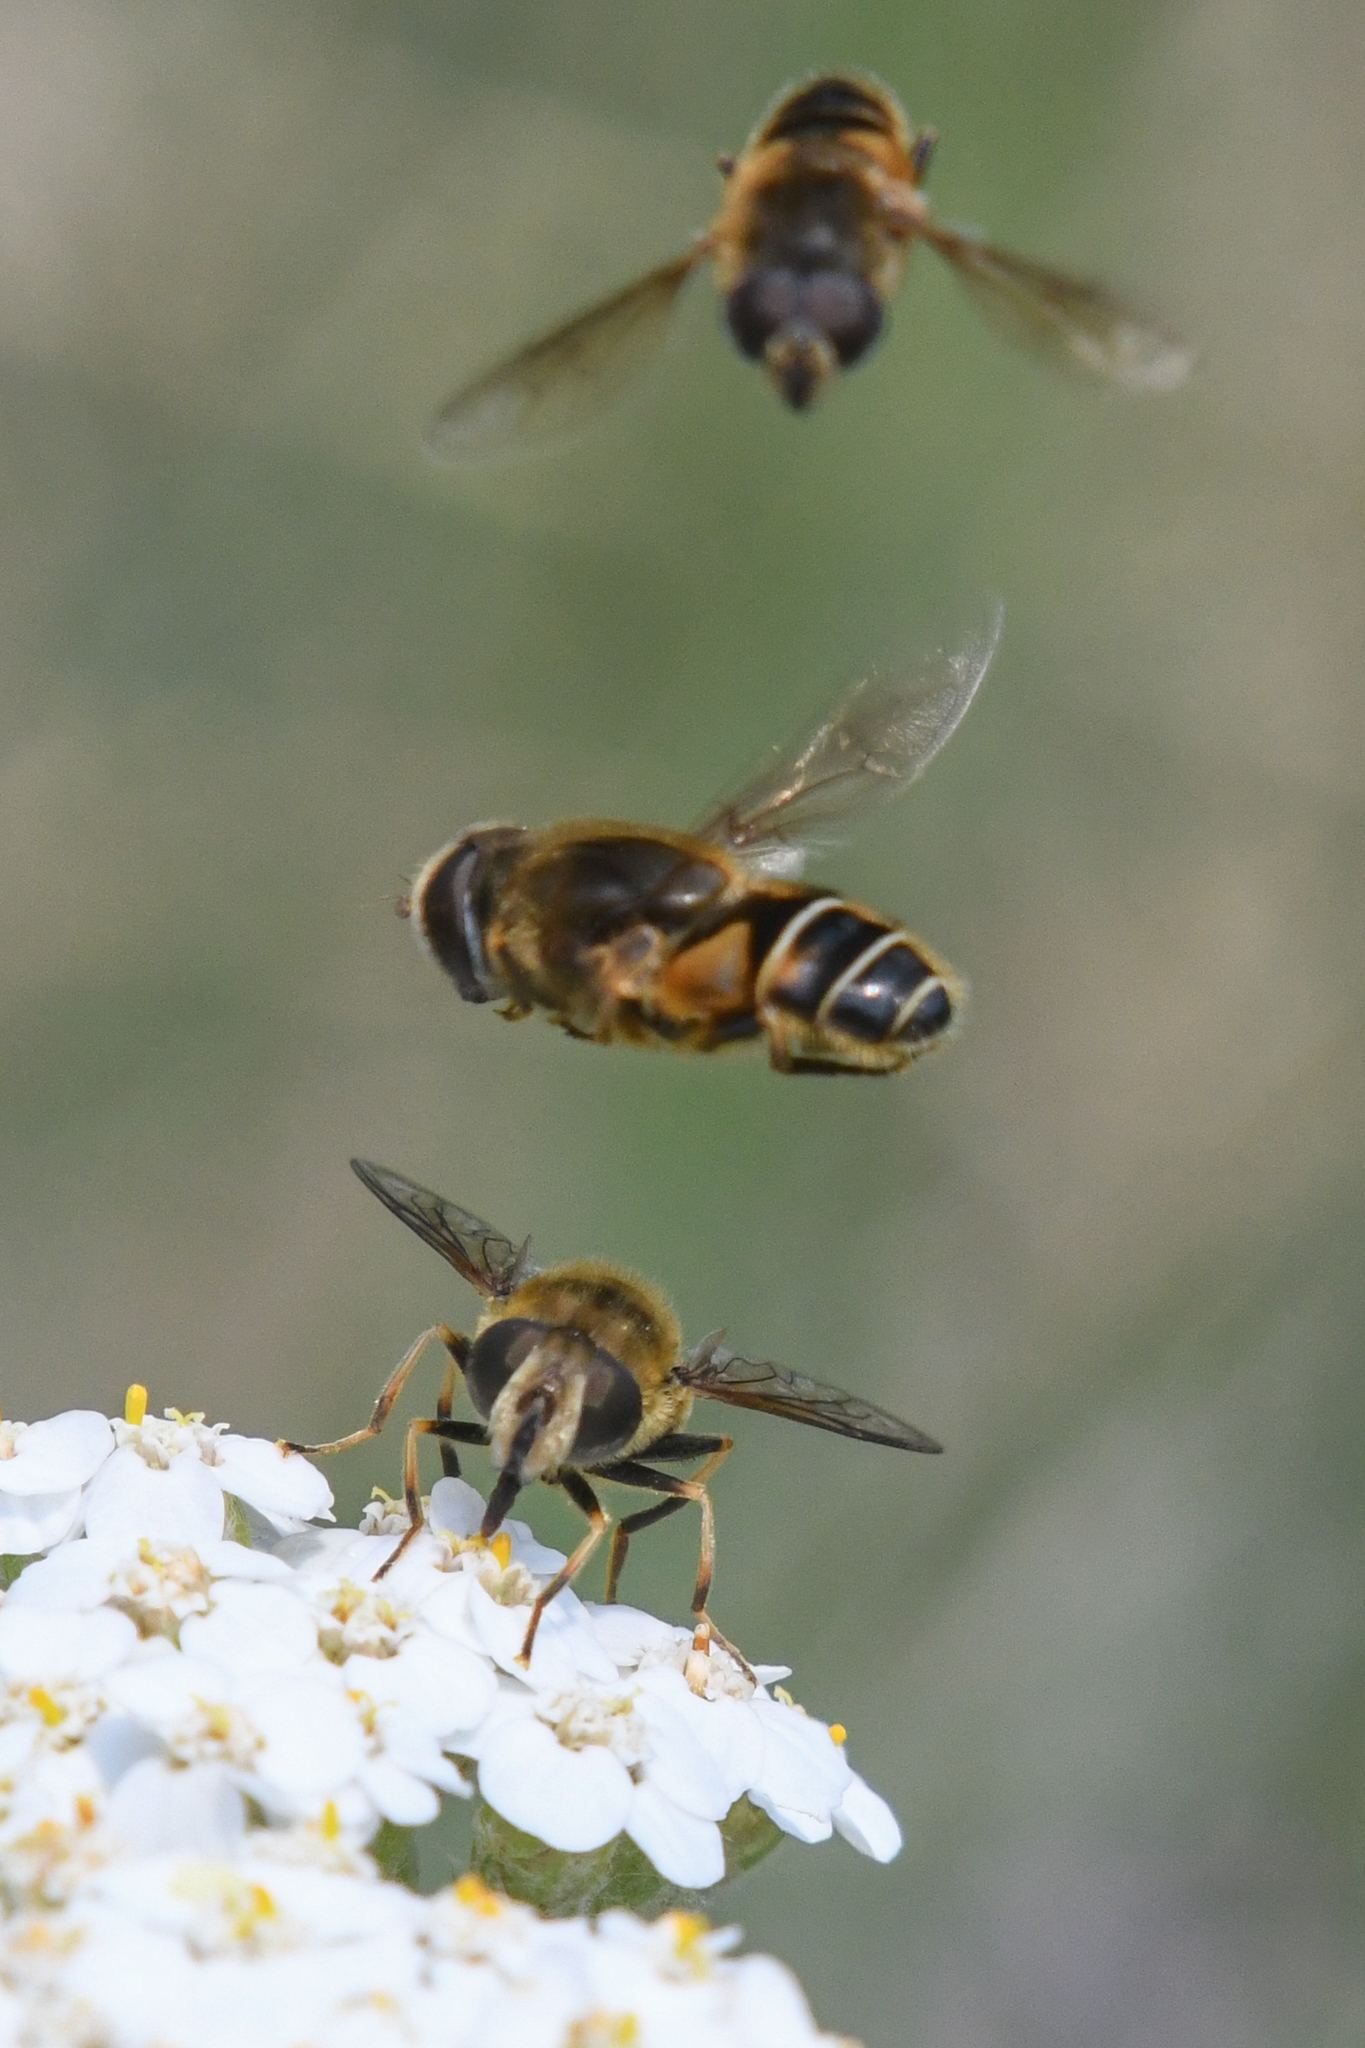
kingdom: Animalia
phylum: Arthropoda
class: Insecta
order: Diptera
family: Syrphidae
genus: Eristalis
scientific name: Eristalis nemorum
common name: Orange-spined drone fly
